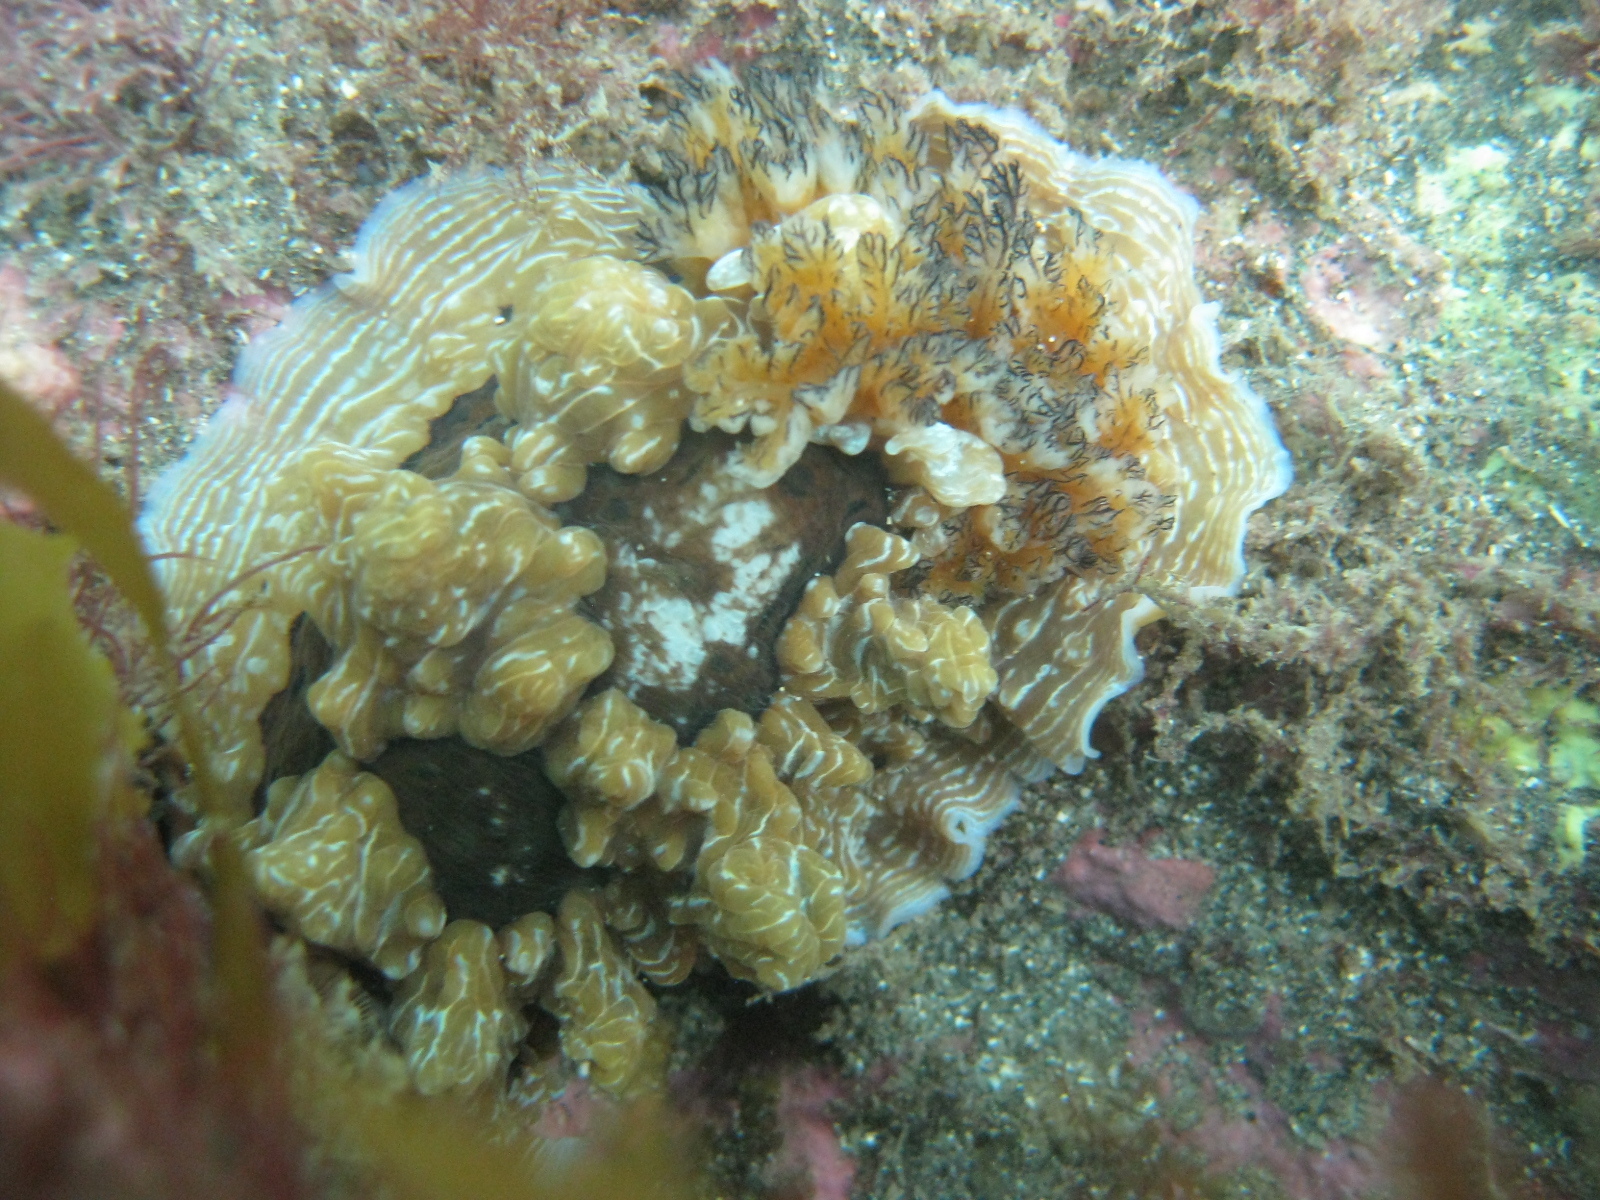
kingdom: Animalia
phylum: Mollusca
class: Gastropoda
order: Nudibranchia
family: Dendrodorididae
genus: Dendrodoris
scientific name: Dendrodoris krusensternii
